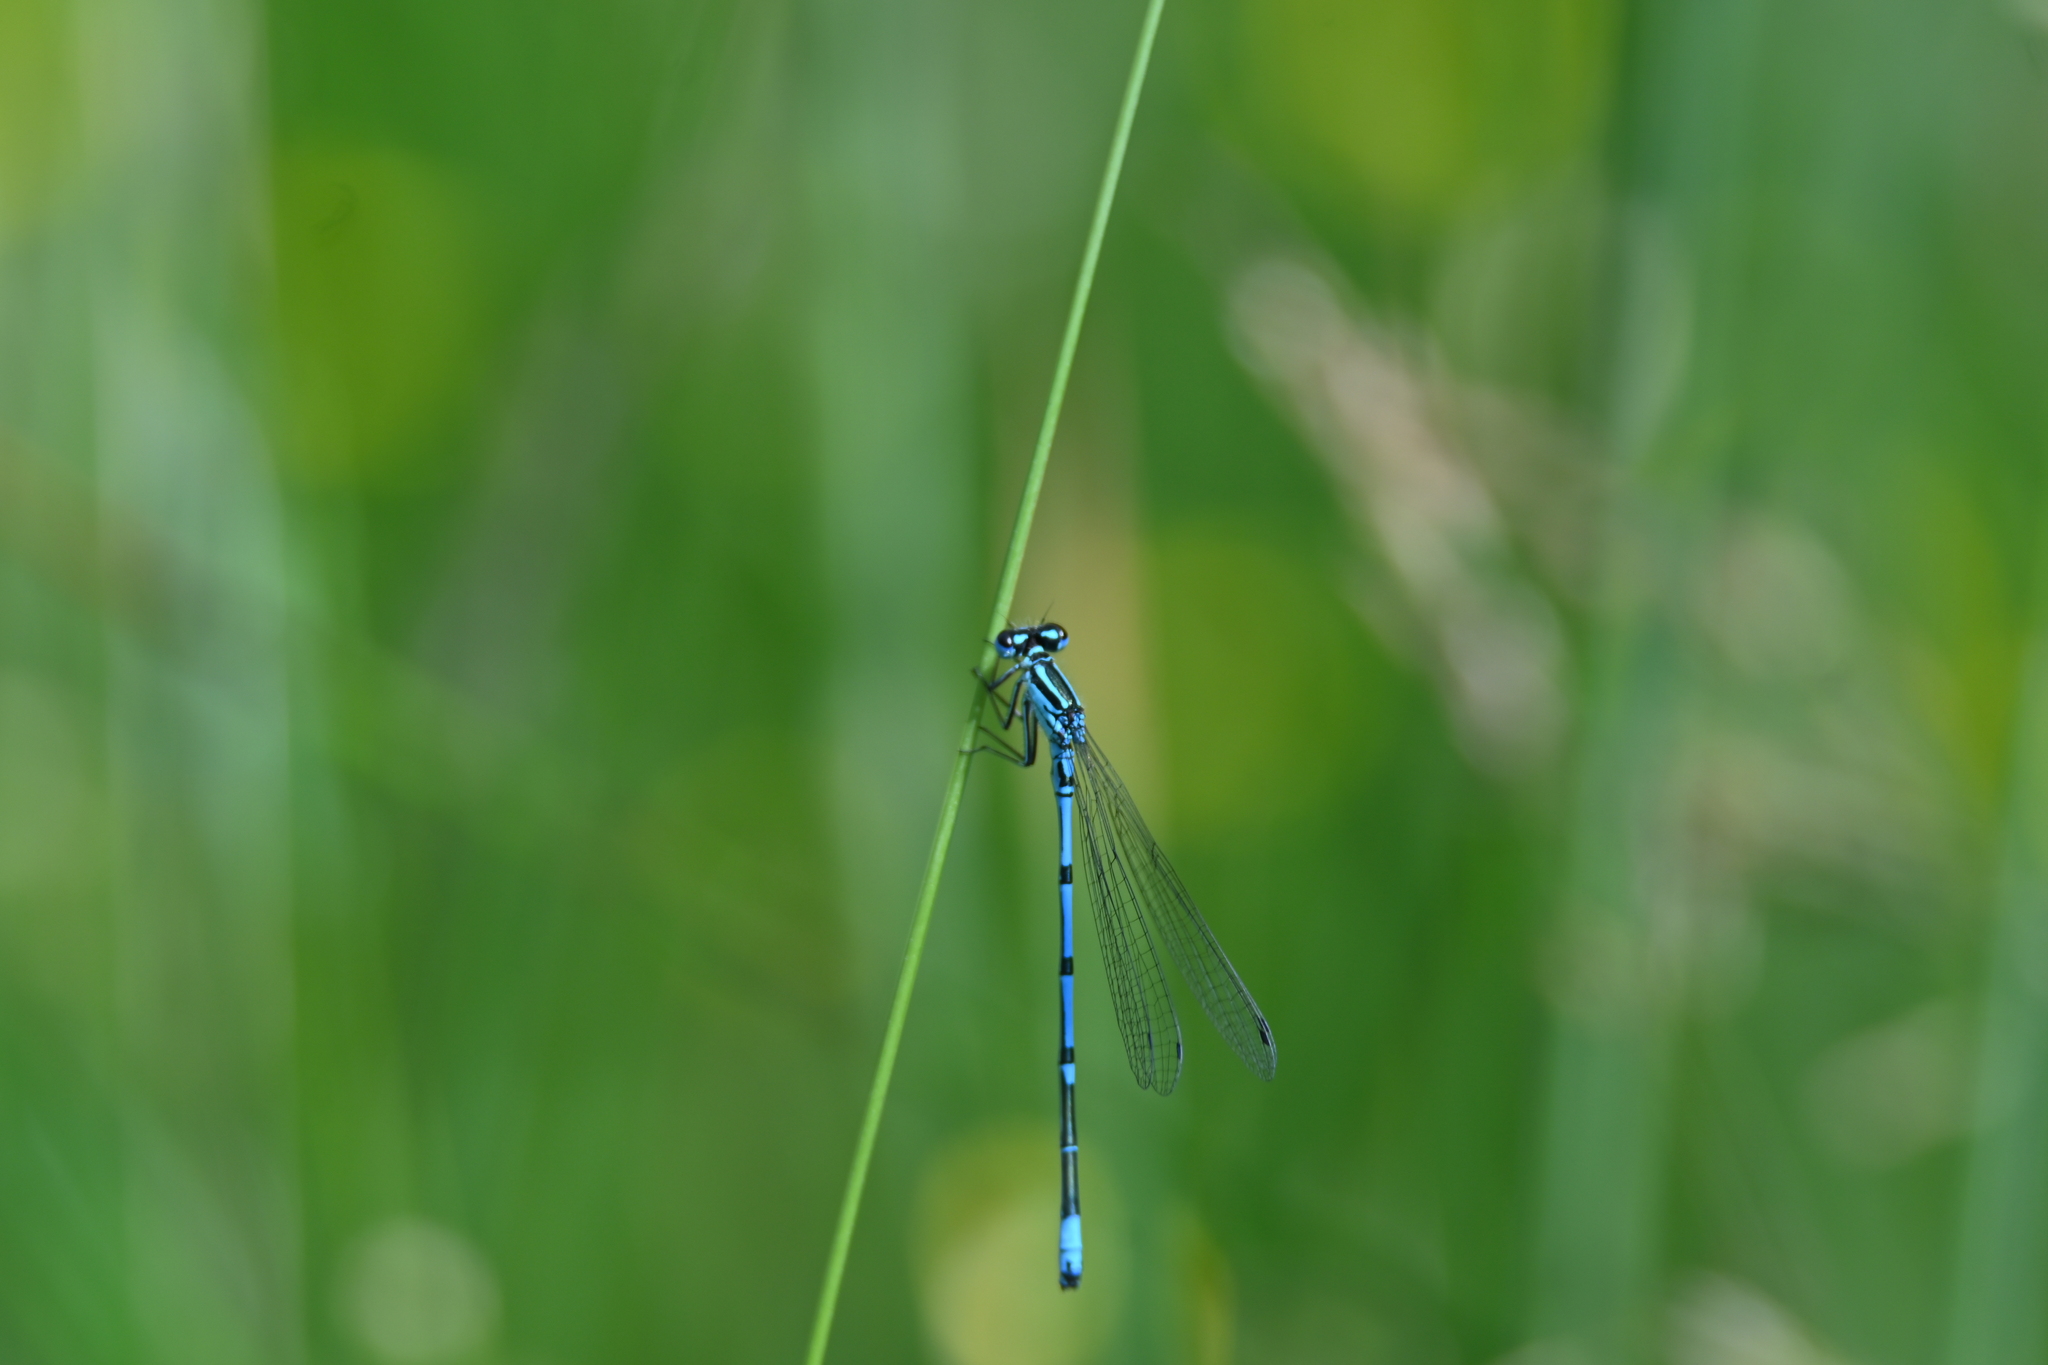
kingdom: Animalia
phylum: Arthropoda
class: Insecta
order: Odonata
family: Coenagrionidae
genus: Coenagrion
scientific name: Coenagrion puella
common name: Azure damselfly
